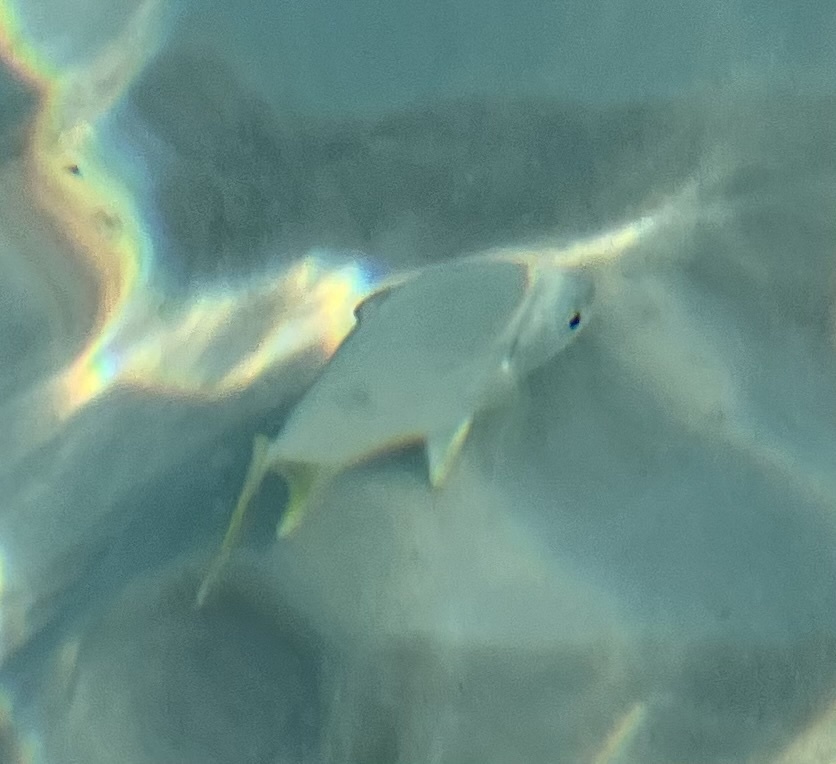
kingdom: Animalia
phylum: Chordata
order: Perciformes
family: Carangidae
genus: Trachinotus
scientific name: Trachinotus carolinus
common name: Florida pompano
